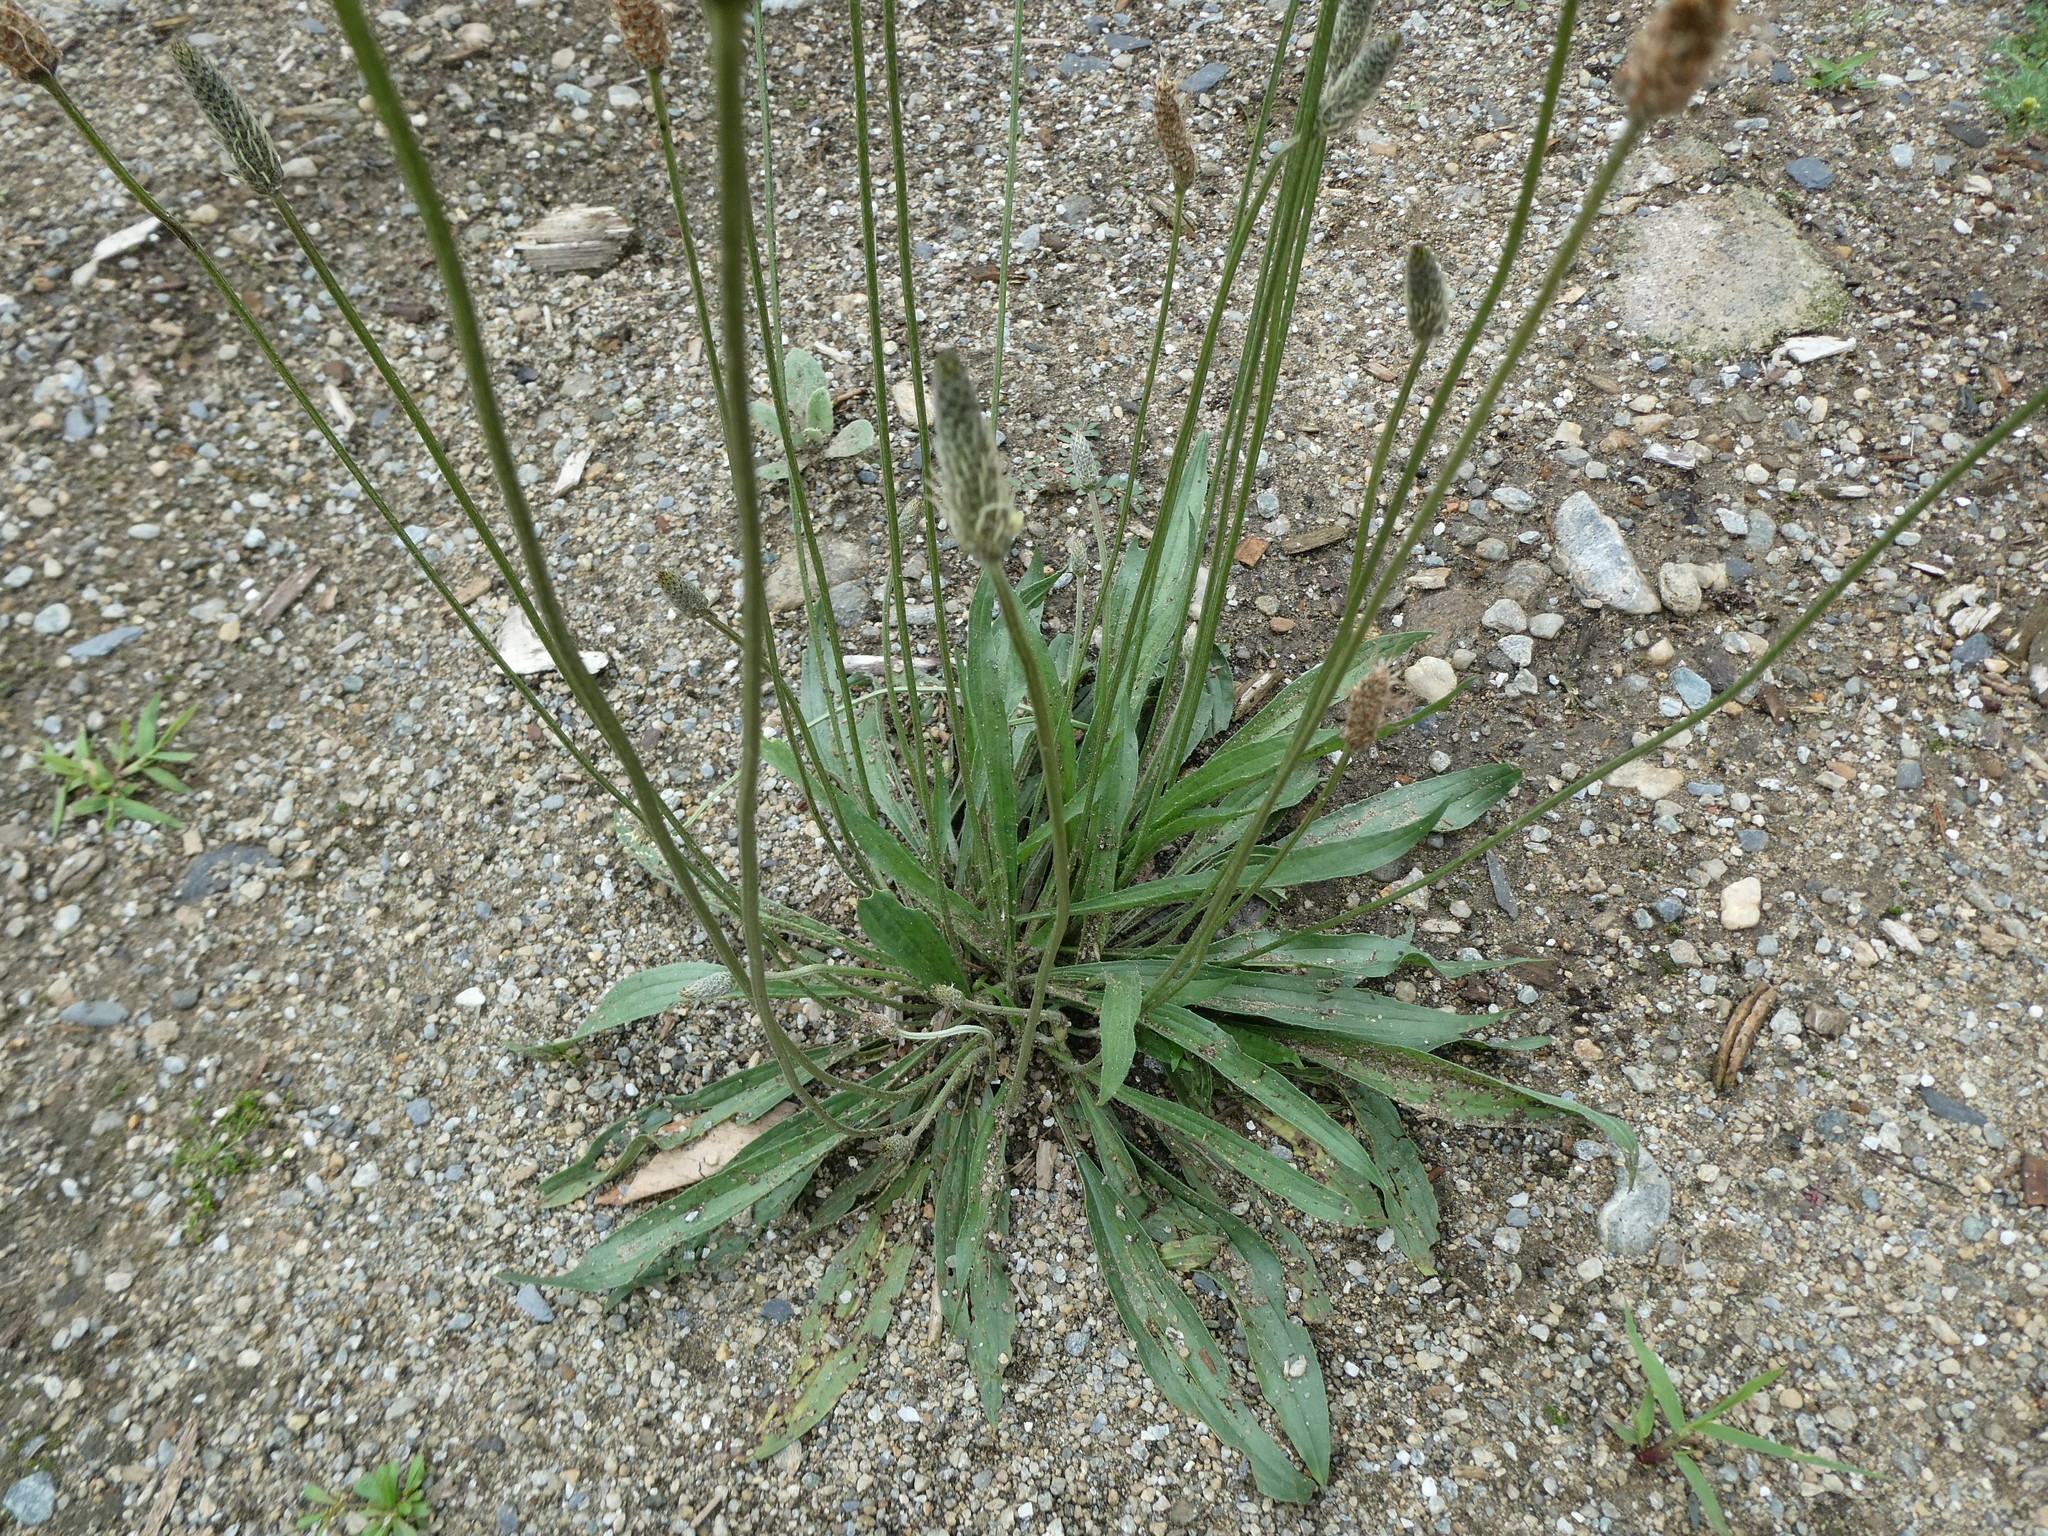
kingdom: Plantae
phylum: Tracheophyta
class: Magnoliopsida
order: Lamiales
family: Plantaginaceae
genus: Plantago
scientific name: Plantago lanceolata
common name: Ribwort plantain
